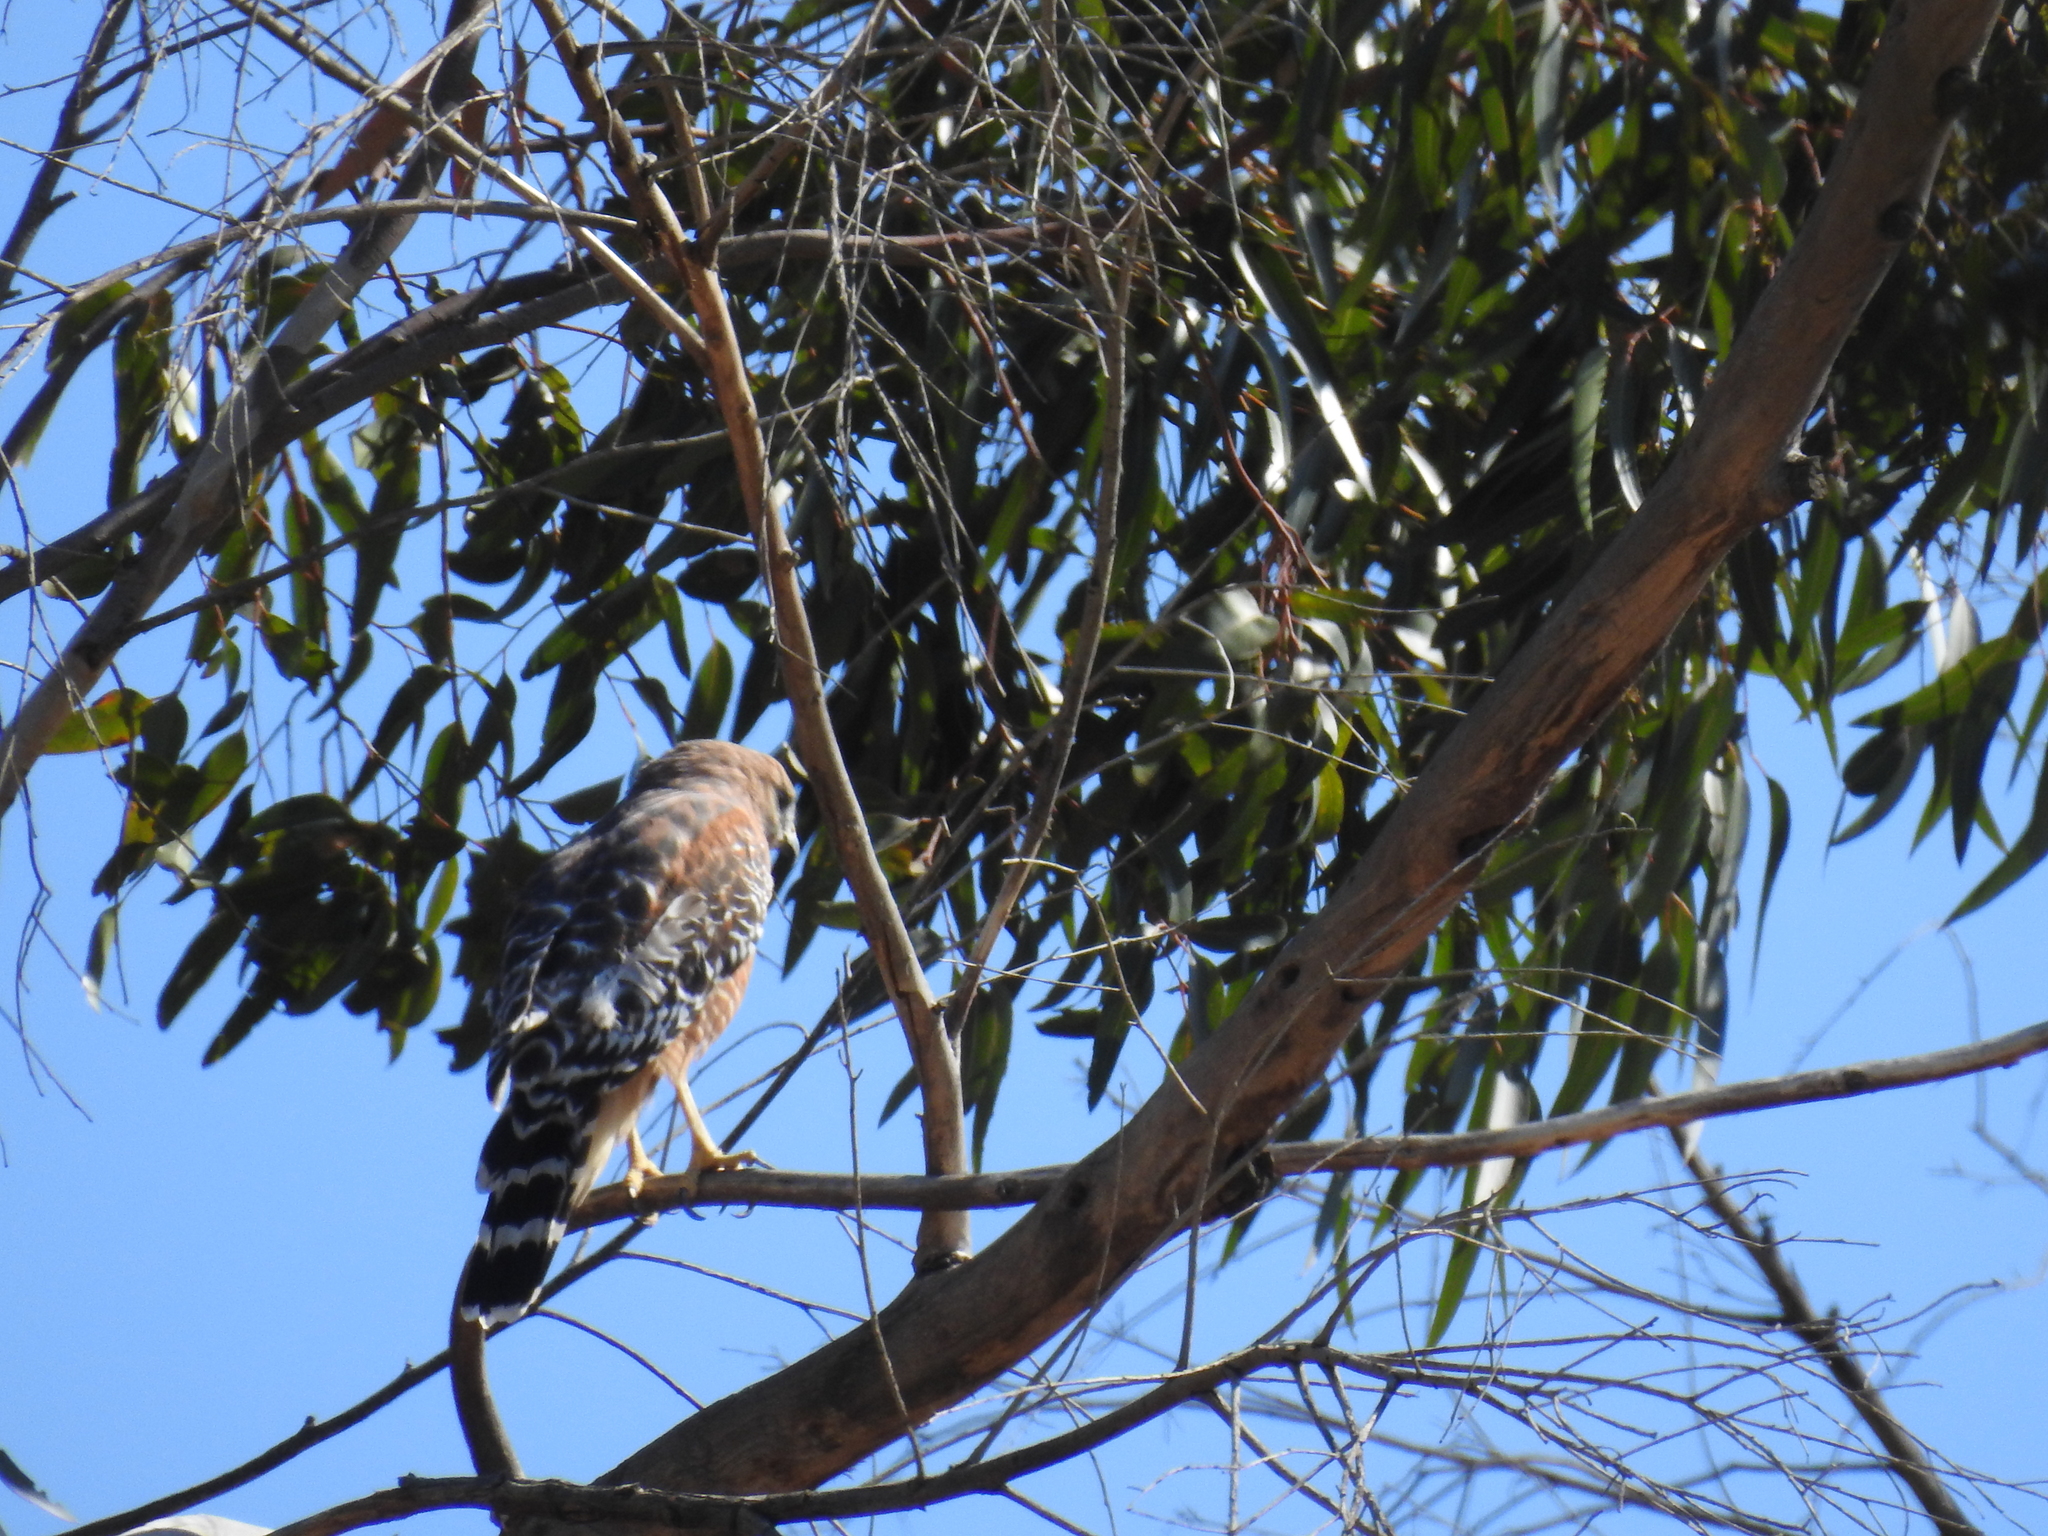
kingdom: Animalia
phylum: Chordata
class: Aves
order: Accipitriformes
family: Accipitridae
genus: Buteo
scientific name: Buteo lineatus
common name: Red-shouldered hawk
